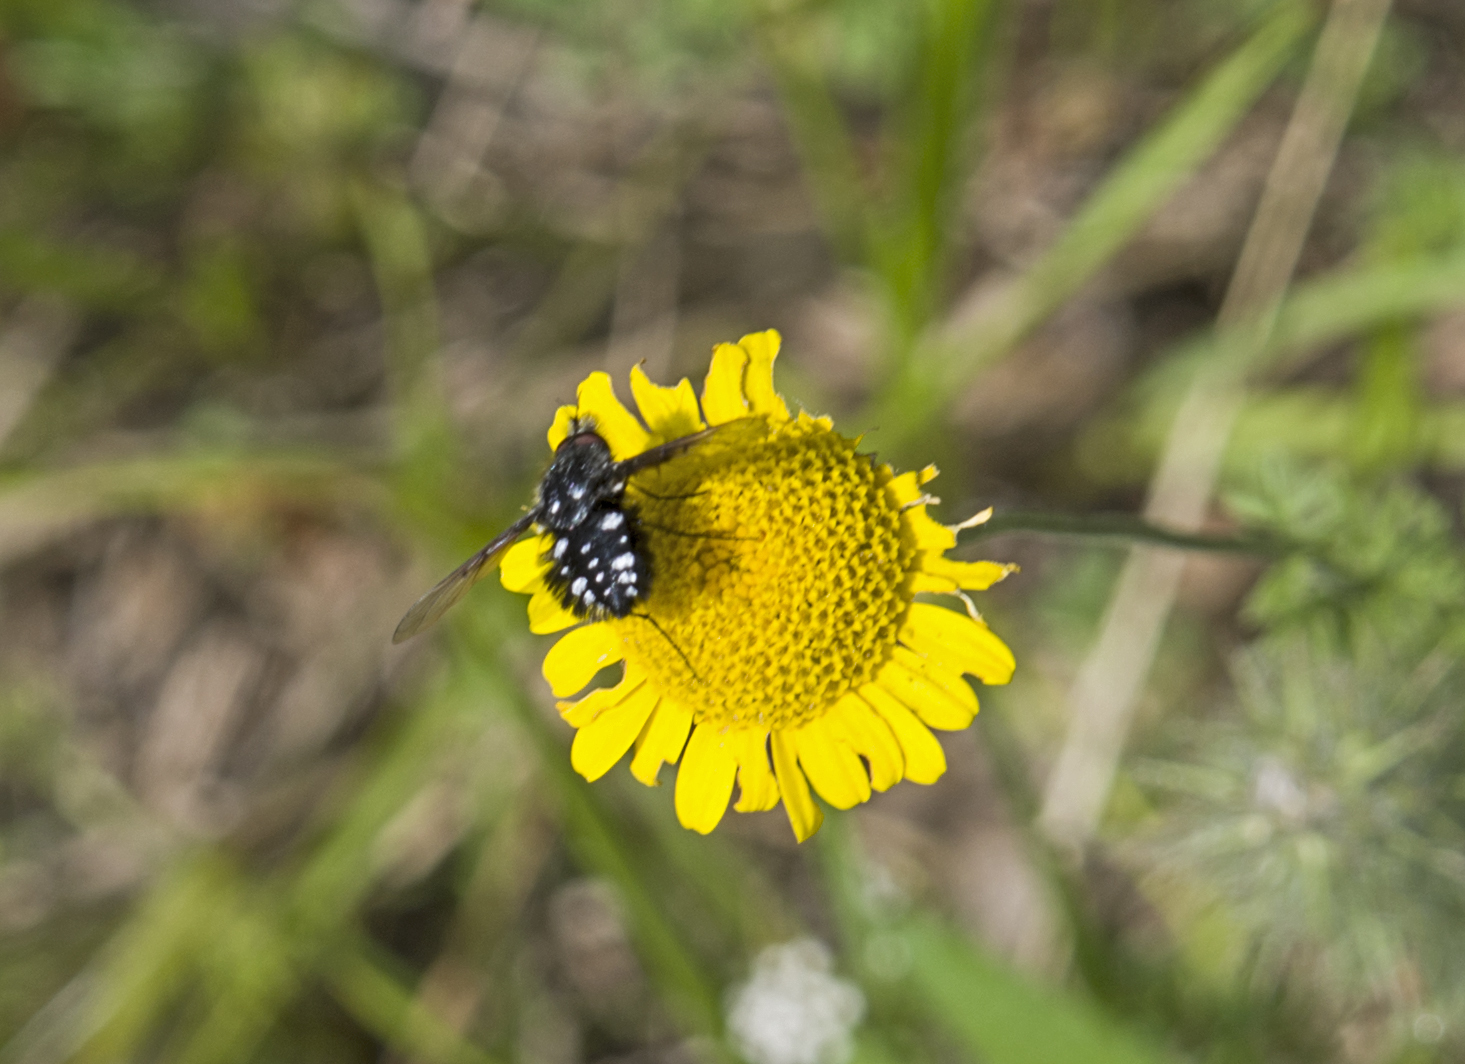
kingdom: Animalia
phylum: Arthropoda
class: Insecta
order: Diptera
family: Bombyliidae
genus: Bombylella
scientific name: Bombylella atra
